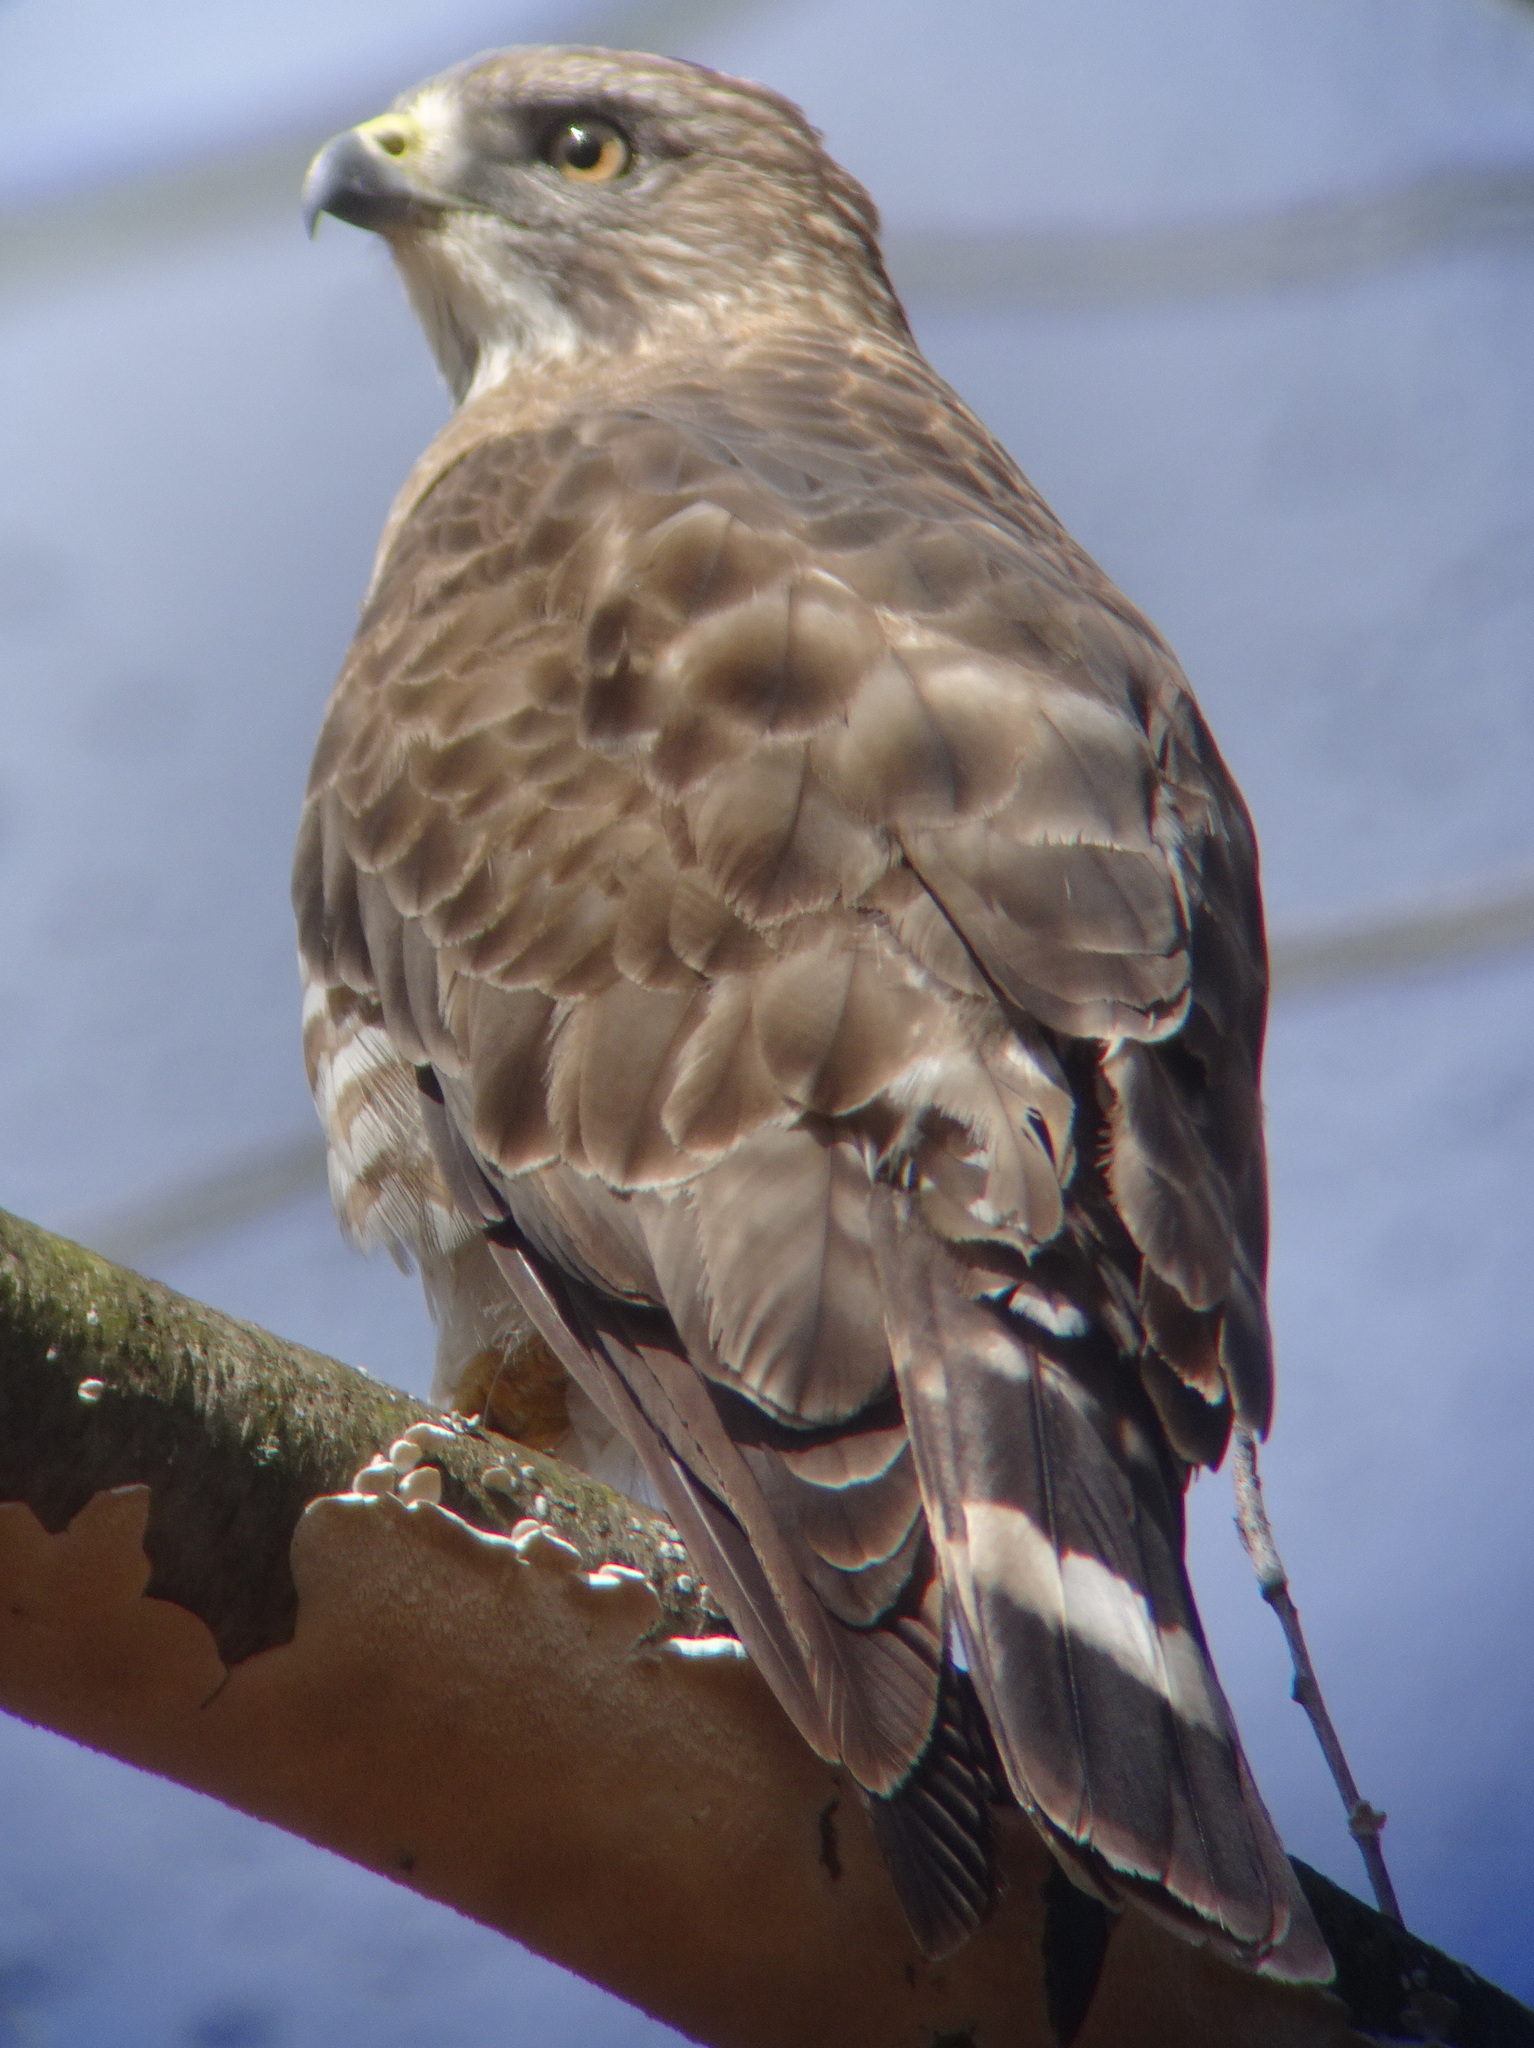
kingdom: Animalia
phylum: Chordata
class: Aves
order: Accipitriformes
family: Accipitridae
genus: Buteo
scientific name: Buteo platypterus
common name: Broad-winged hawk
